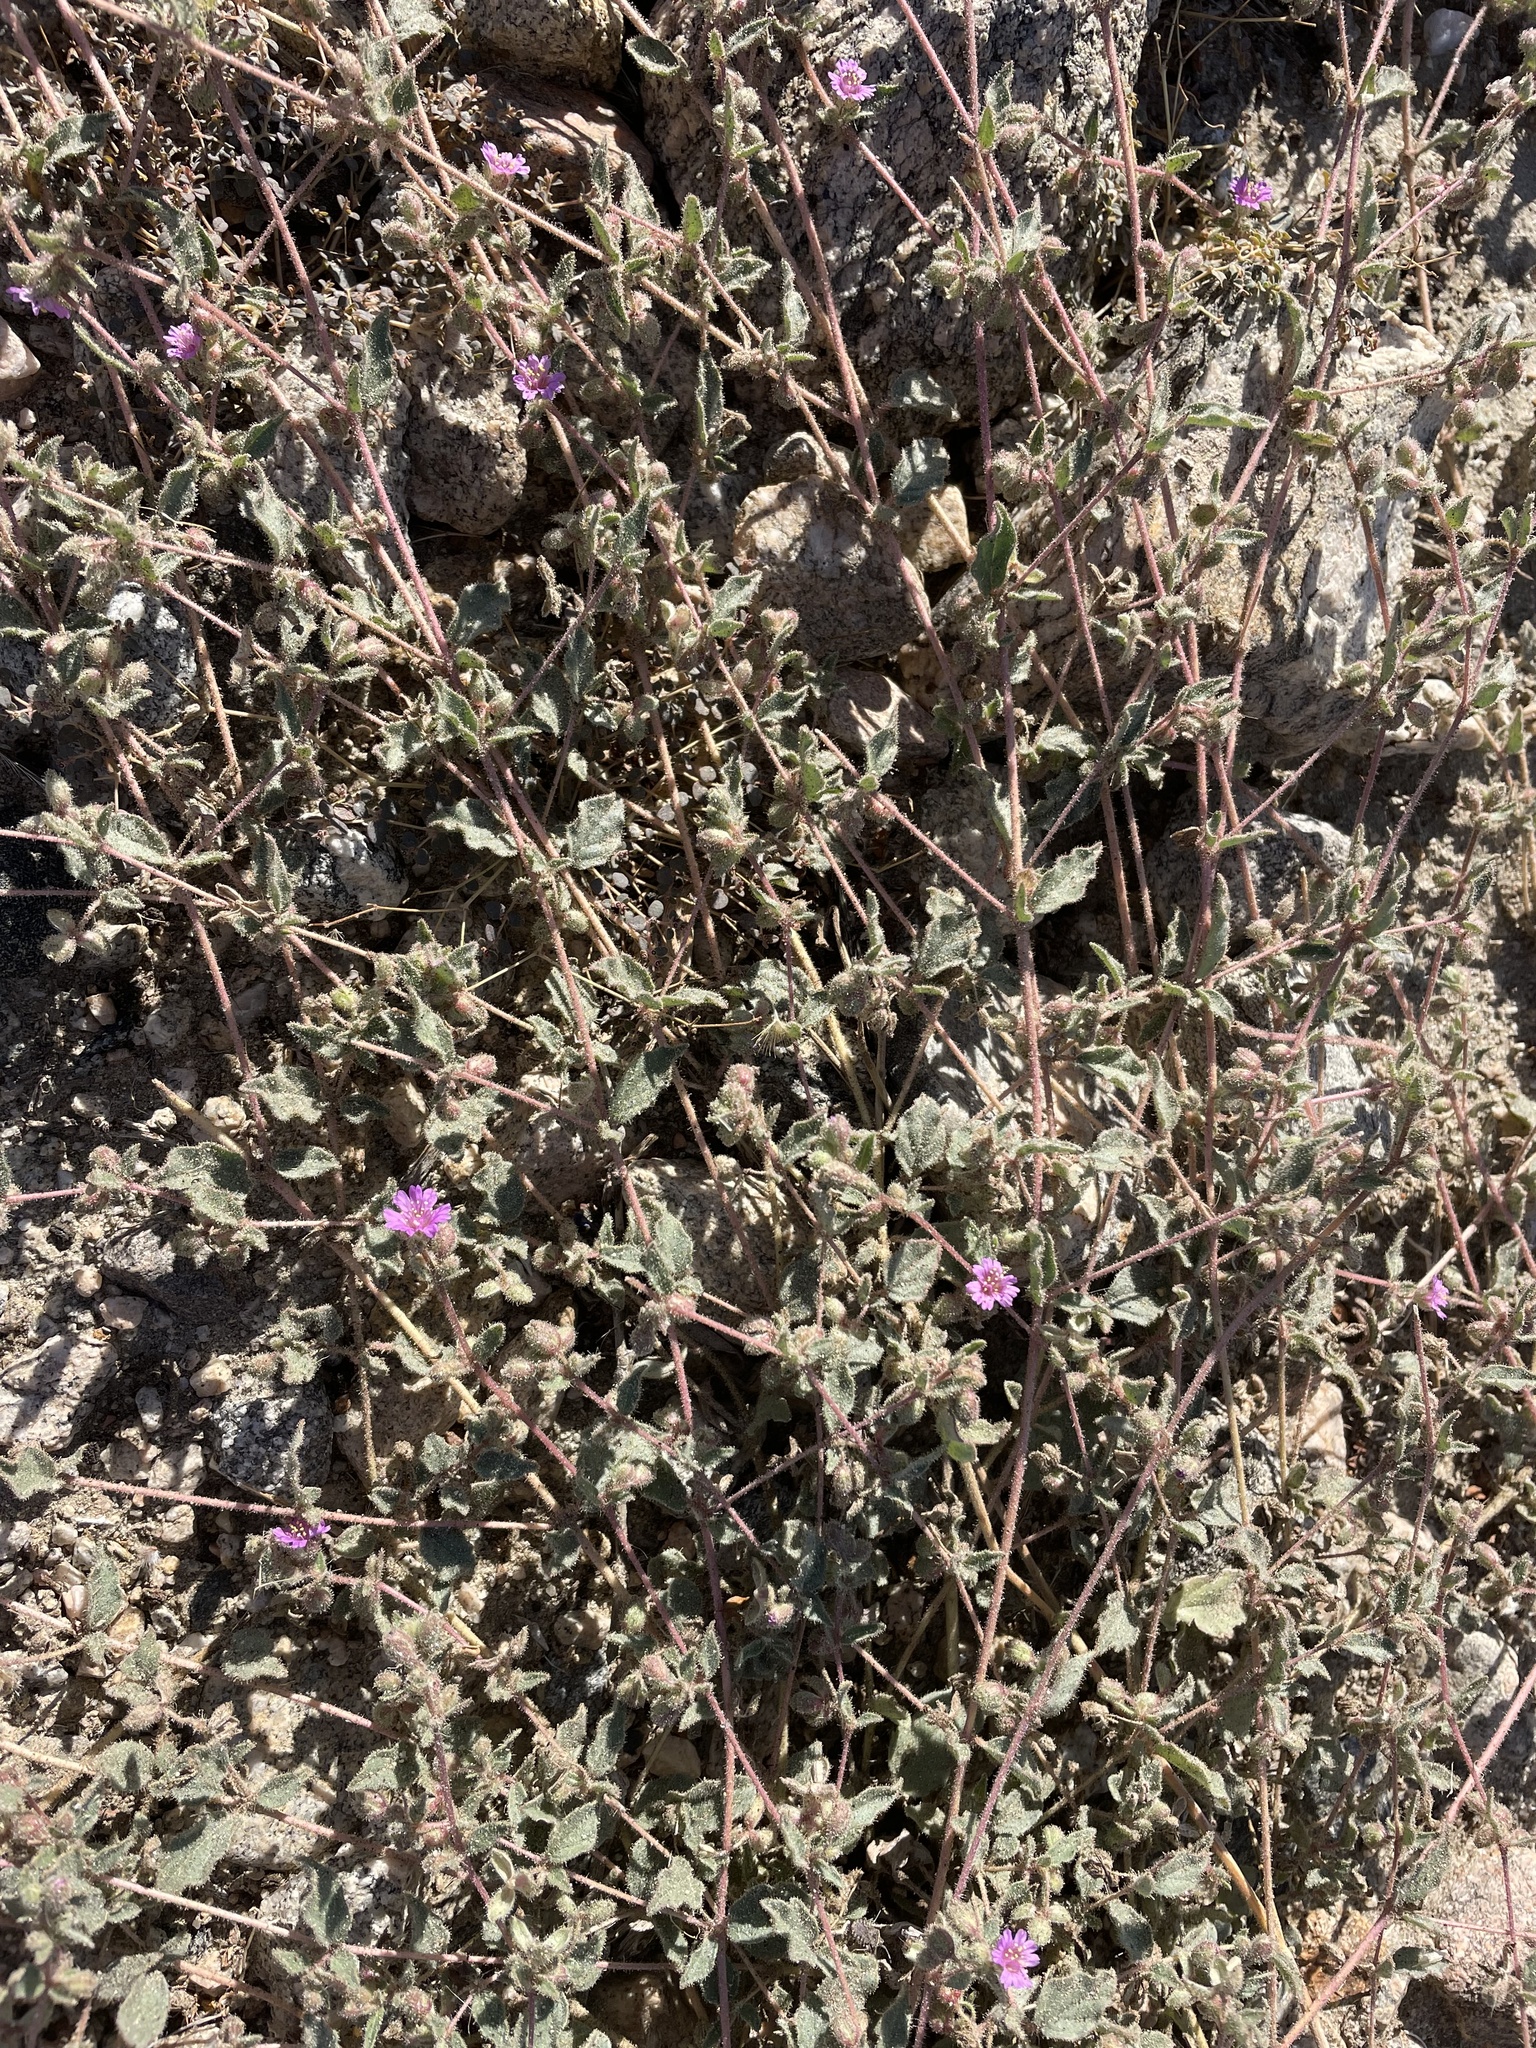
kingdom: Plantae
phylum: Tracheophyta
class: Magnoliopsida
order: Caryophyllales
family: Nyctaginaceae
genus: Allionia
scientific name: Allionia incarnata
